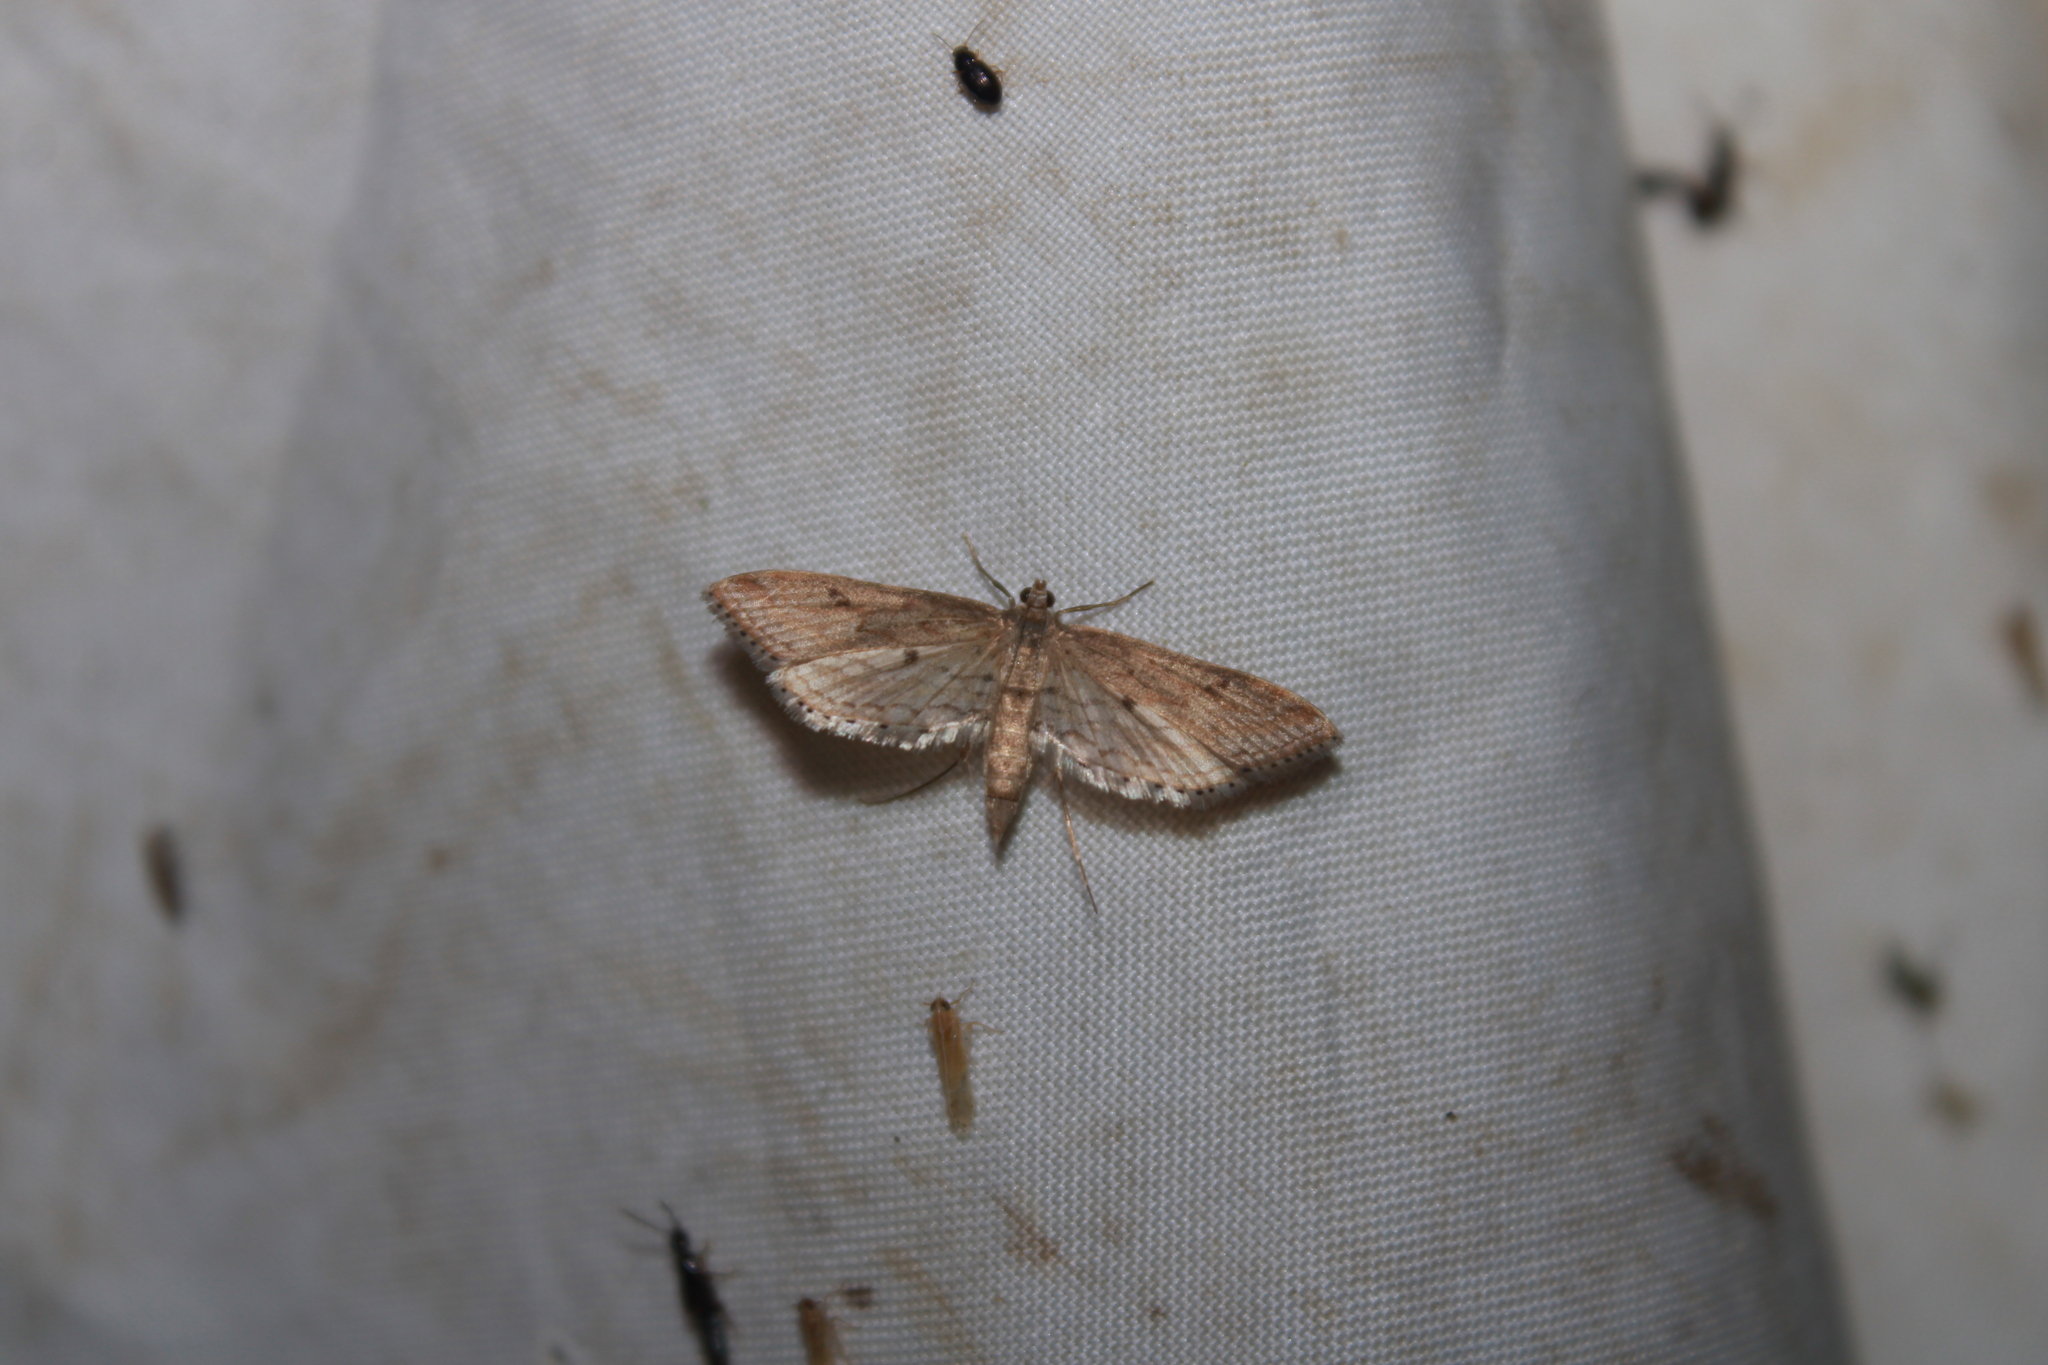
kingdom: Animalia
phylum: Arthropoda
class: Insecta
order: Lepidoptera
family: Crambidae
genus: Parapoynx
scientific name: Parapoynx allionealis
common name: Bladderwort casemaker
